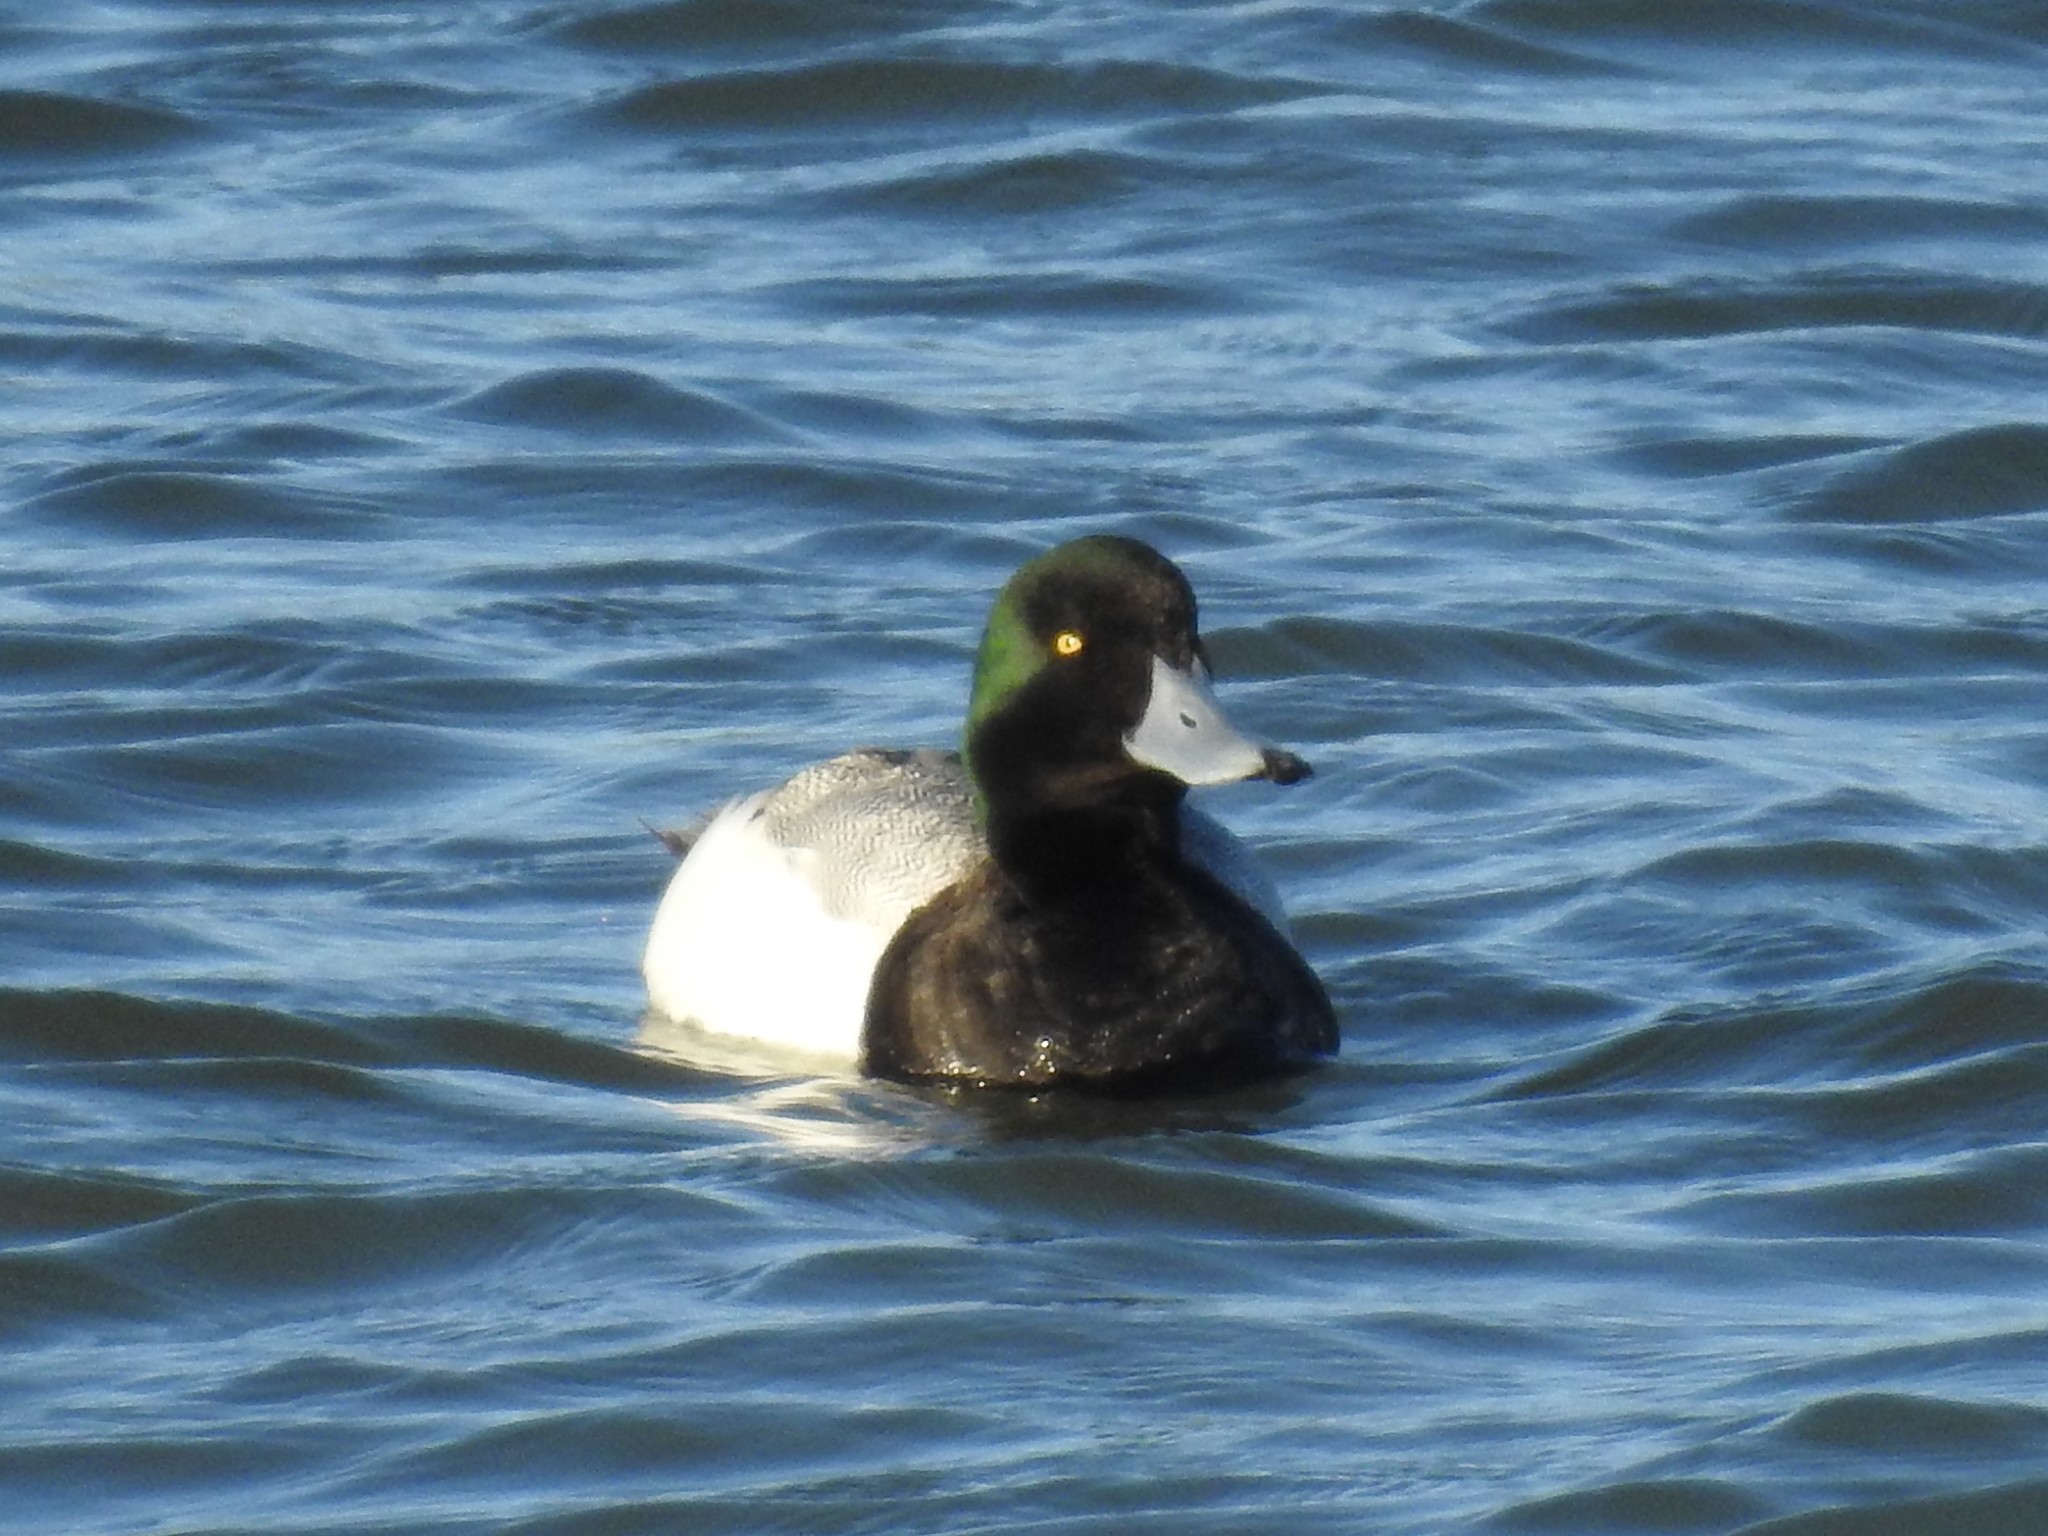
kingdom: Animalia
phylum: Chordata
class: Aves
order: Anseriformes
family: Anatidae
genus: Aythya
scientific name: Aythya marila
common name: Greater scaup
